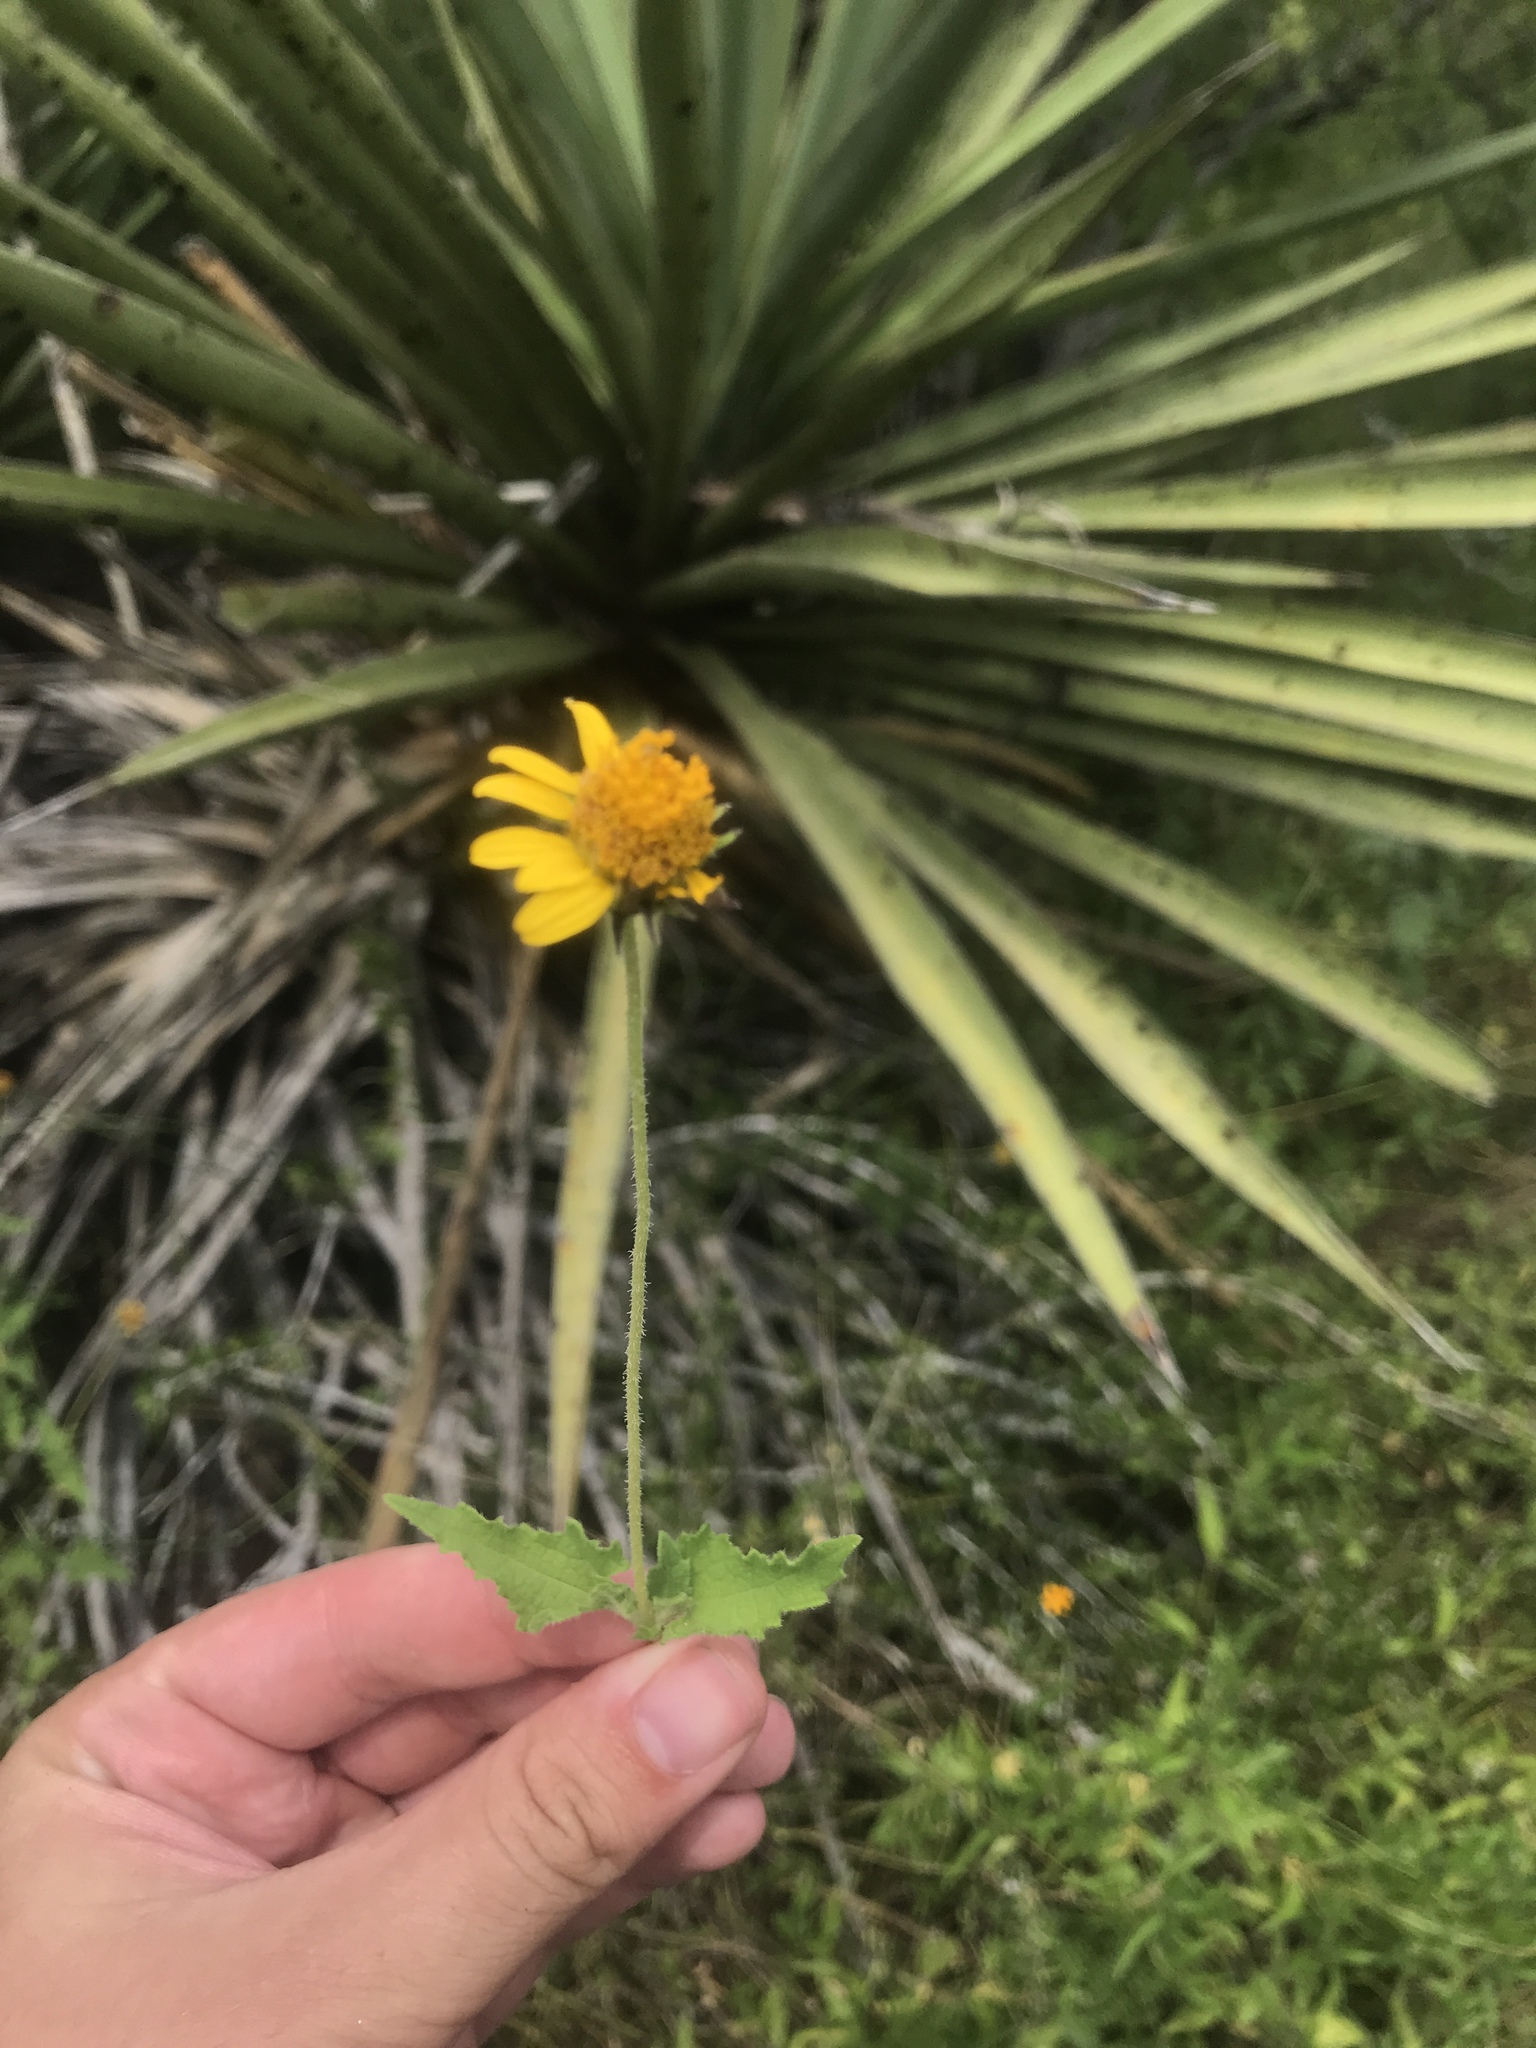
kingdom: Plantae
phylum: Tracheophyta
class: Magnoliopsida
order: Asterales
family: Asteraceae
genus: Simsia
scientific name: Simsia calva
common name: Awnless bush-sunflower
